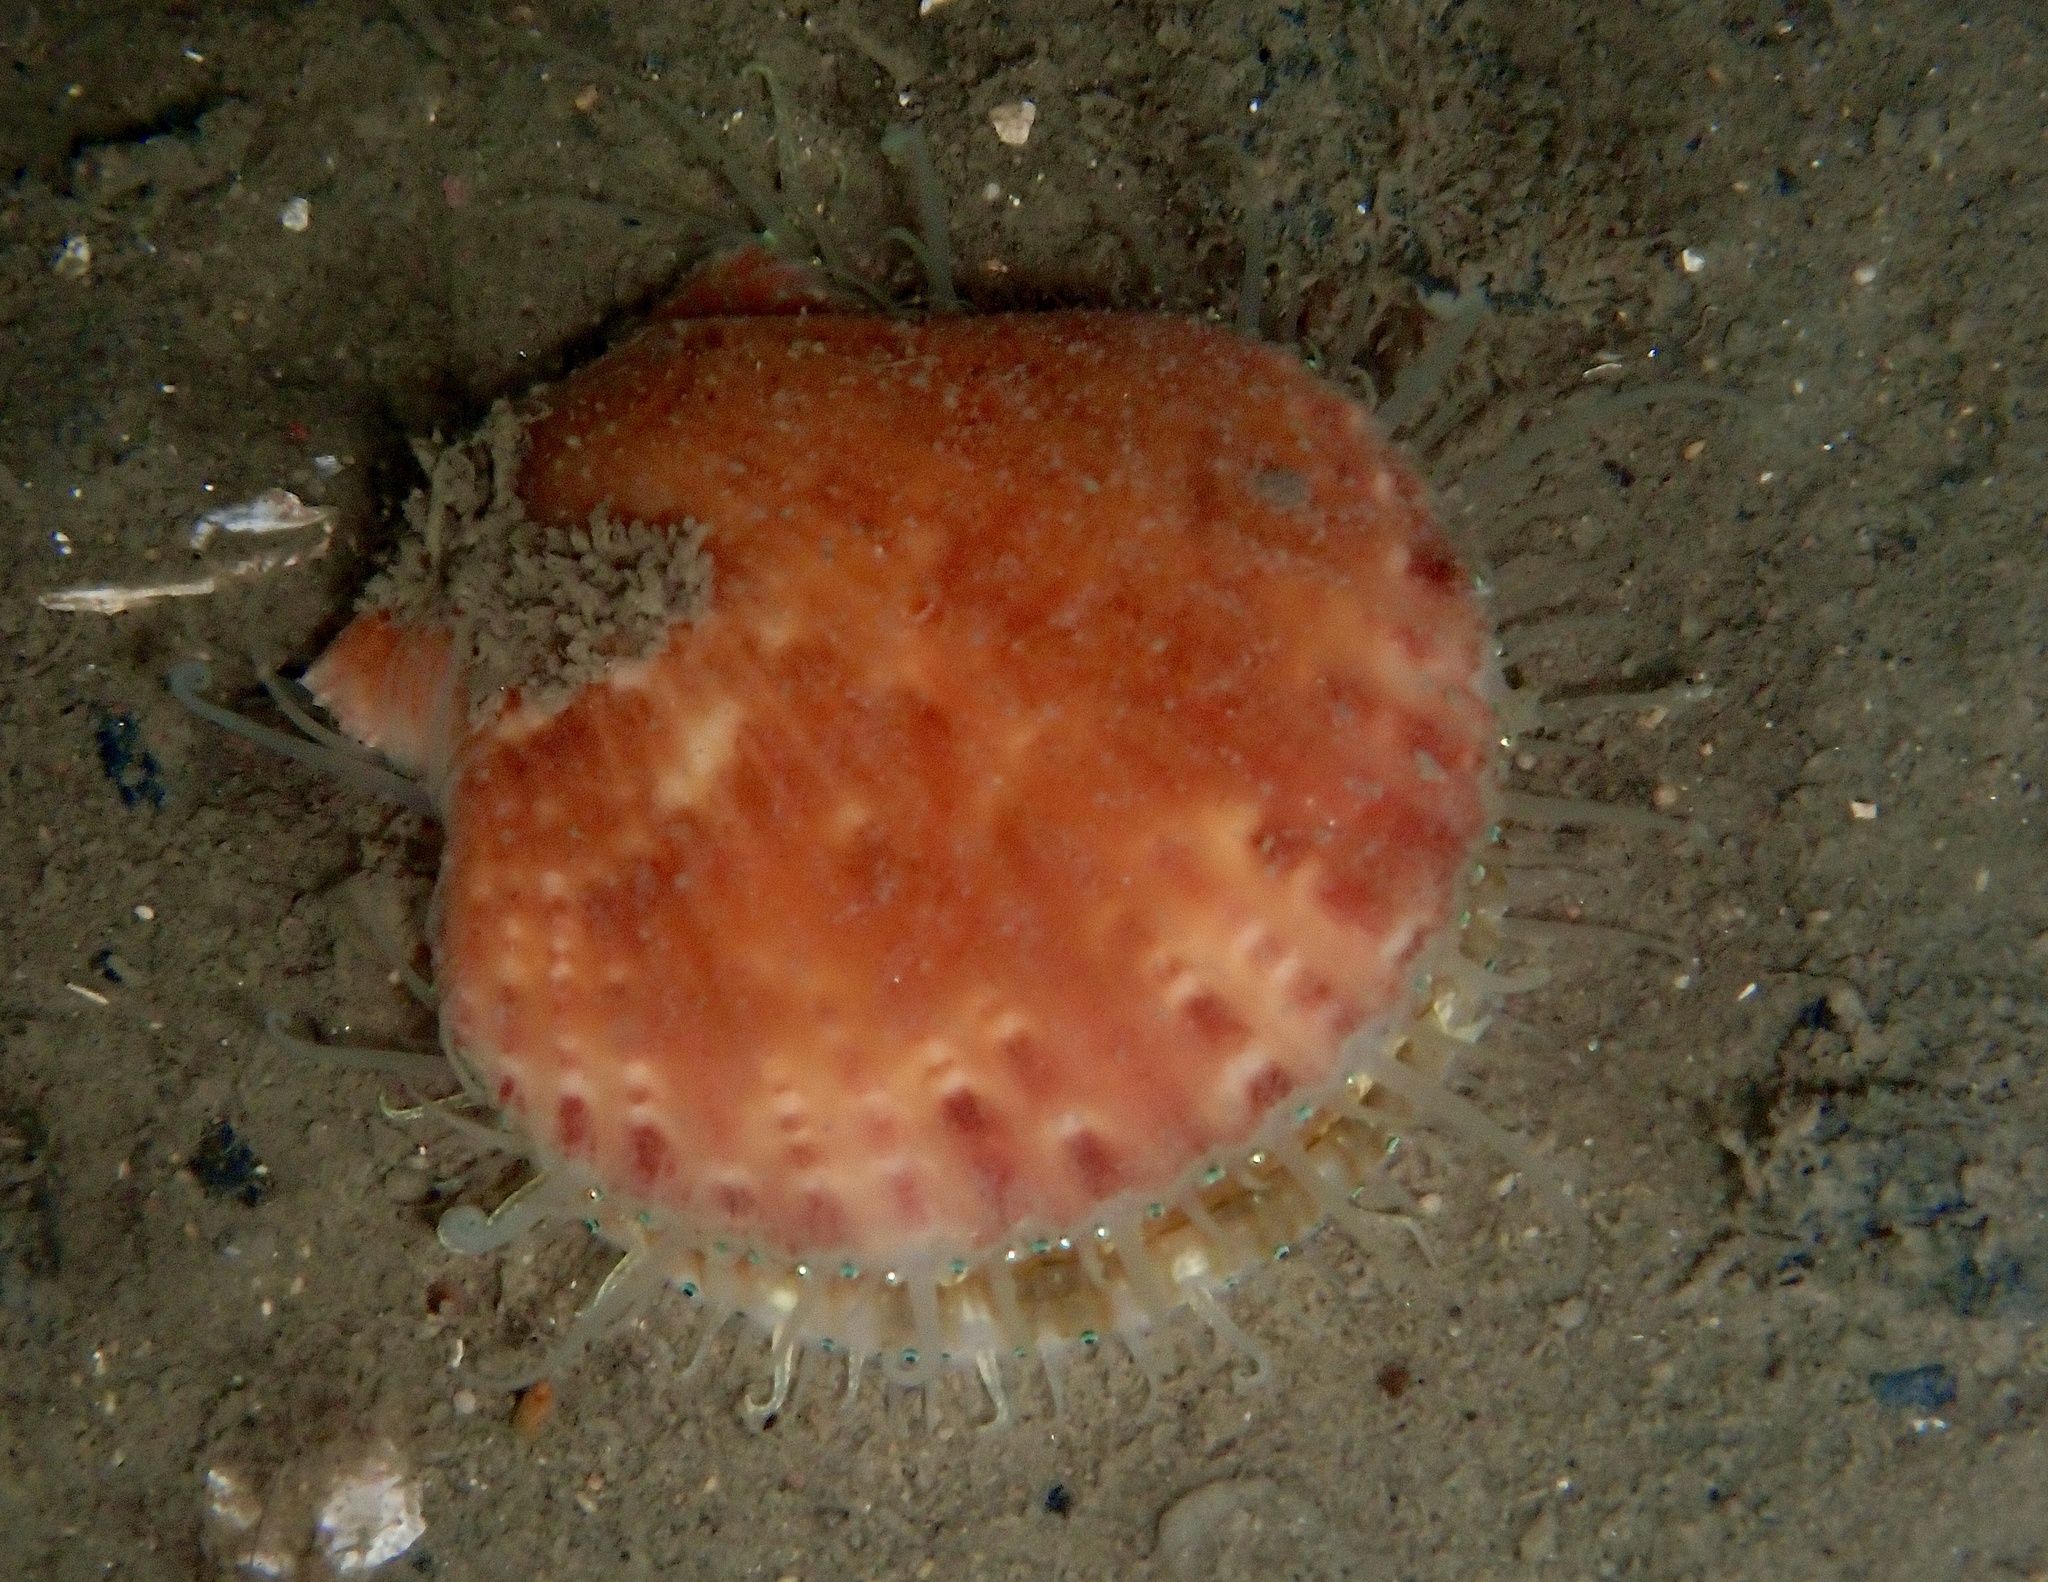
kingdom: Animalia
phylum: Mollusca
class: Bivalvia
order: Pectinida
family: Pectinidae
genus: Aequipecten
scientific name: Aequipecten opercularis
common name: Queen scallop
